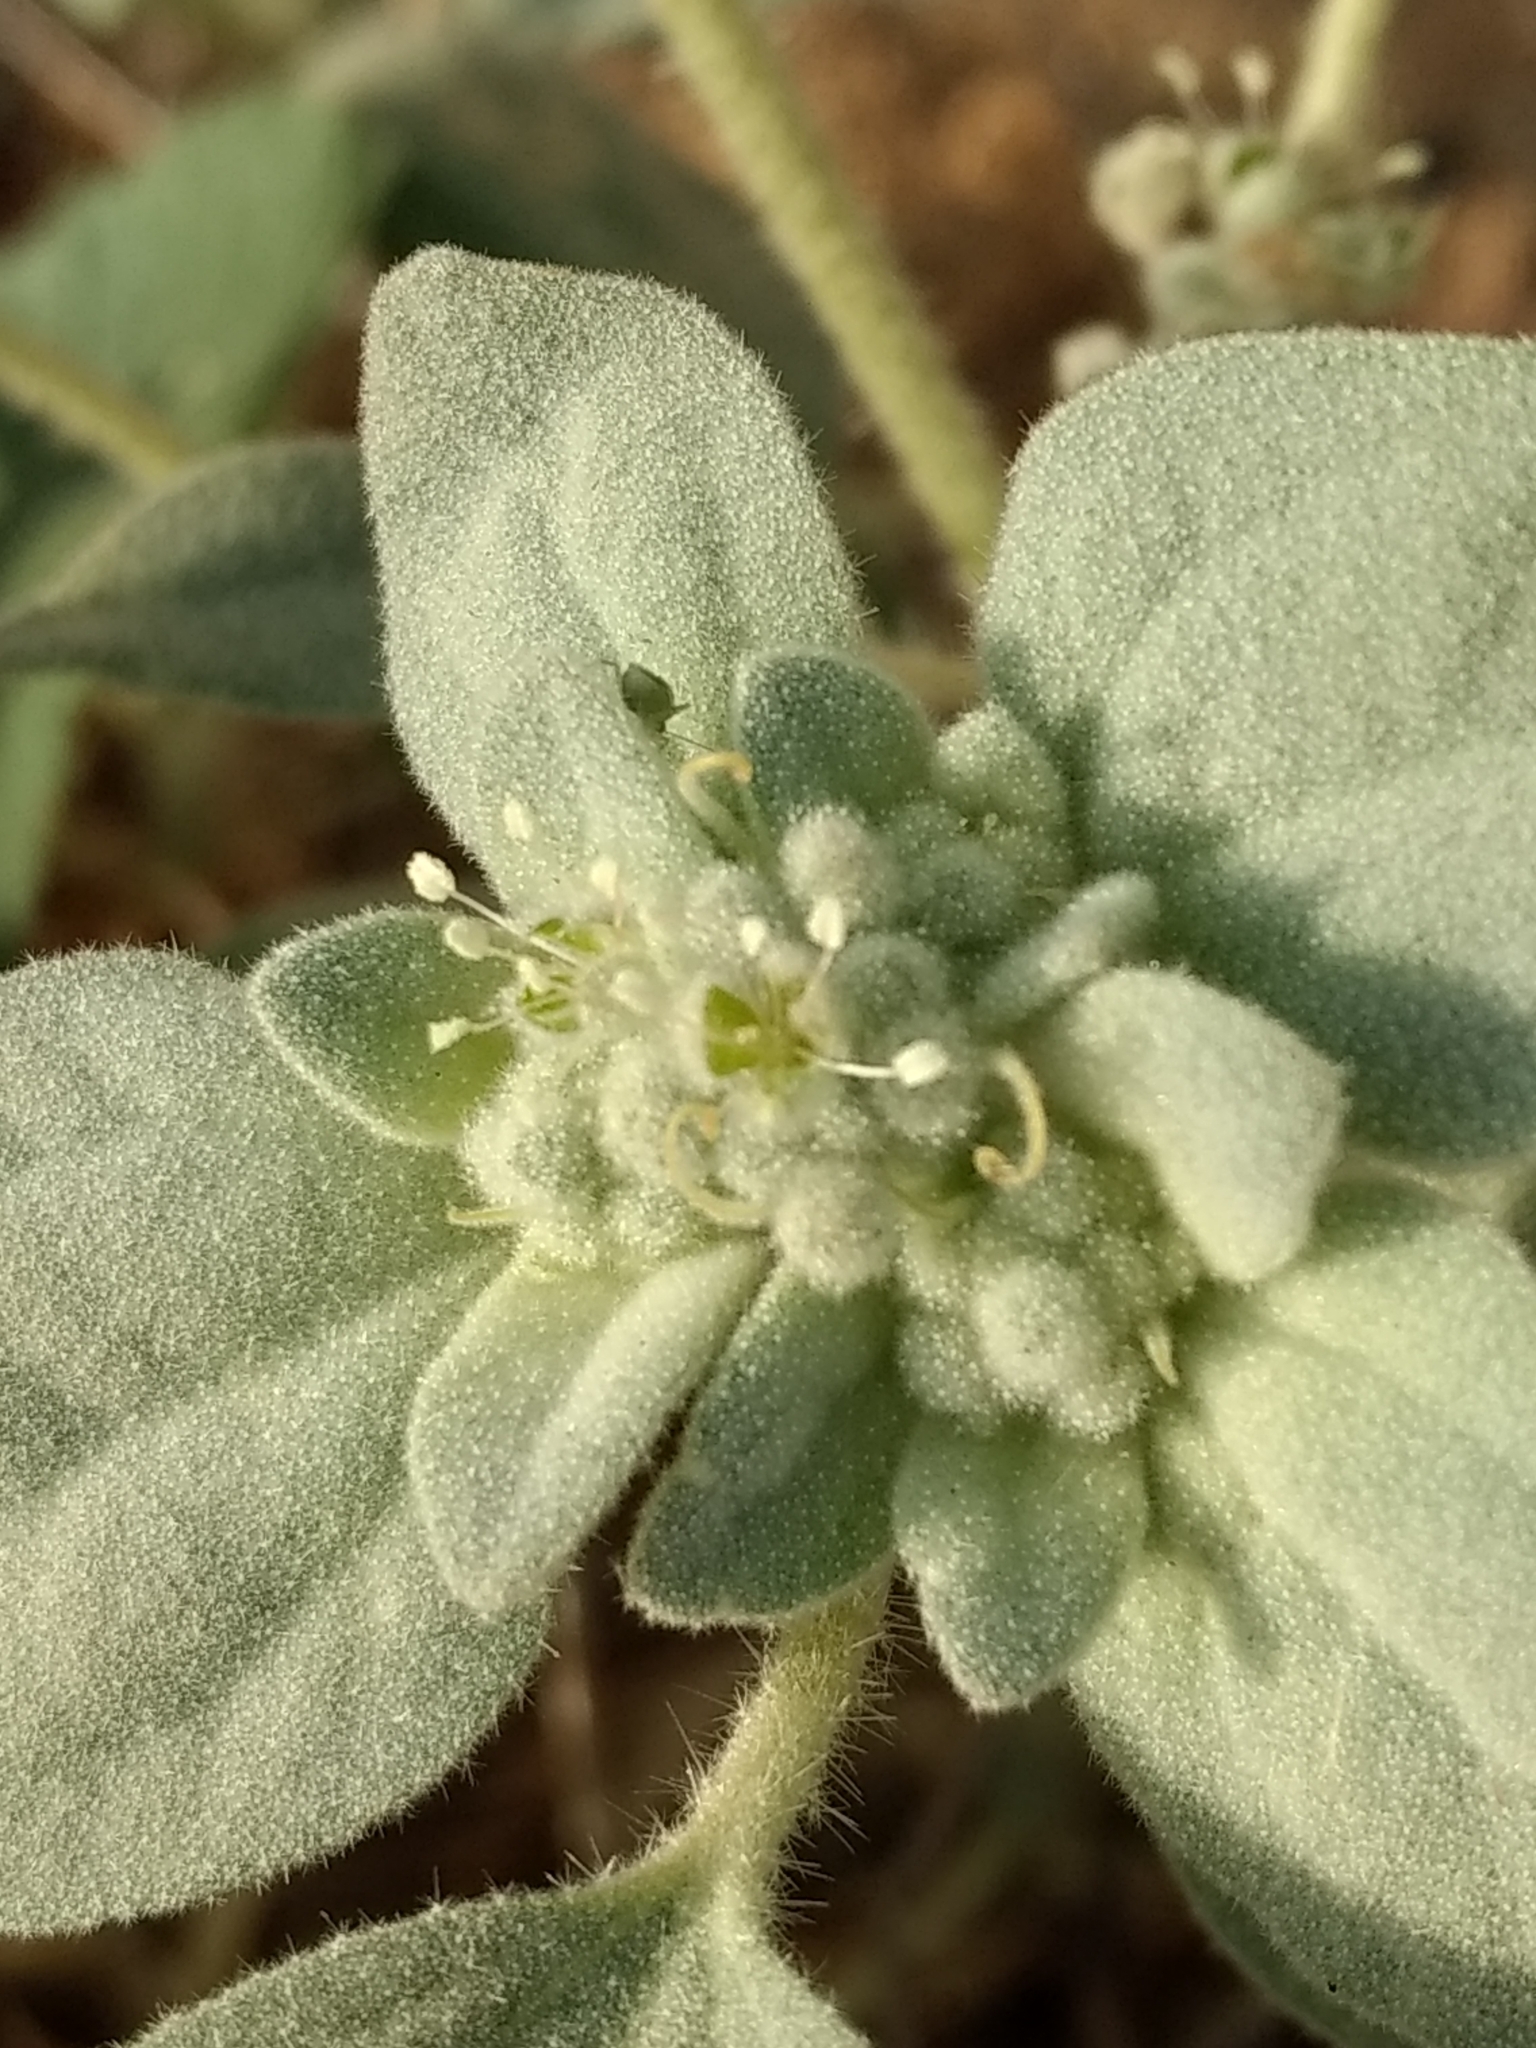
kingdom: Plantae
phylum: Tracheophyta
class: Magnoliopsida
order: Malpighiales
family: Euphorbiaceae
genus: Croton
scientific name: Croton setiger
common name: Dove weed
